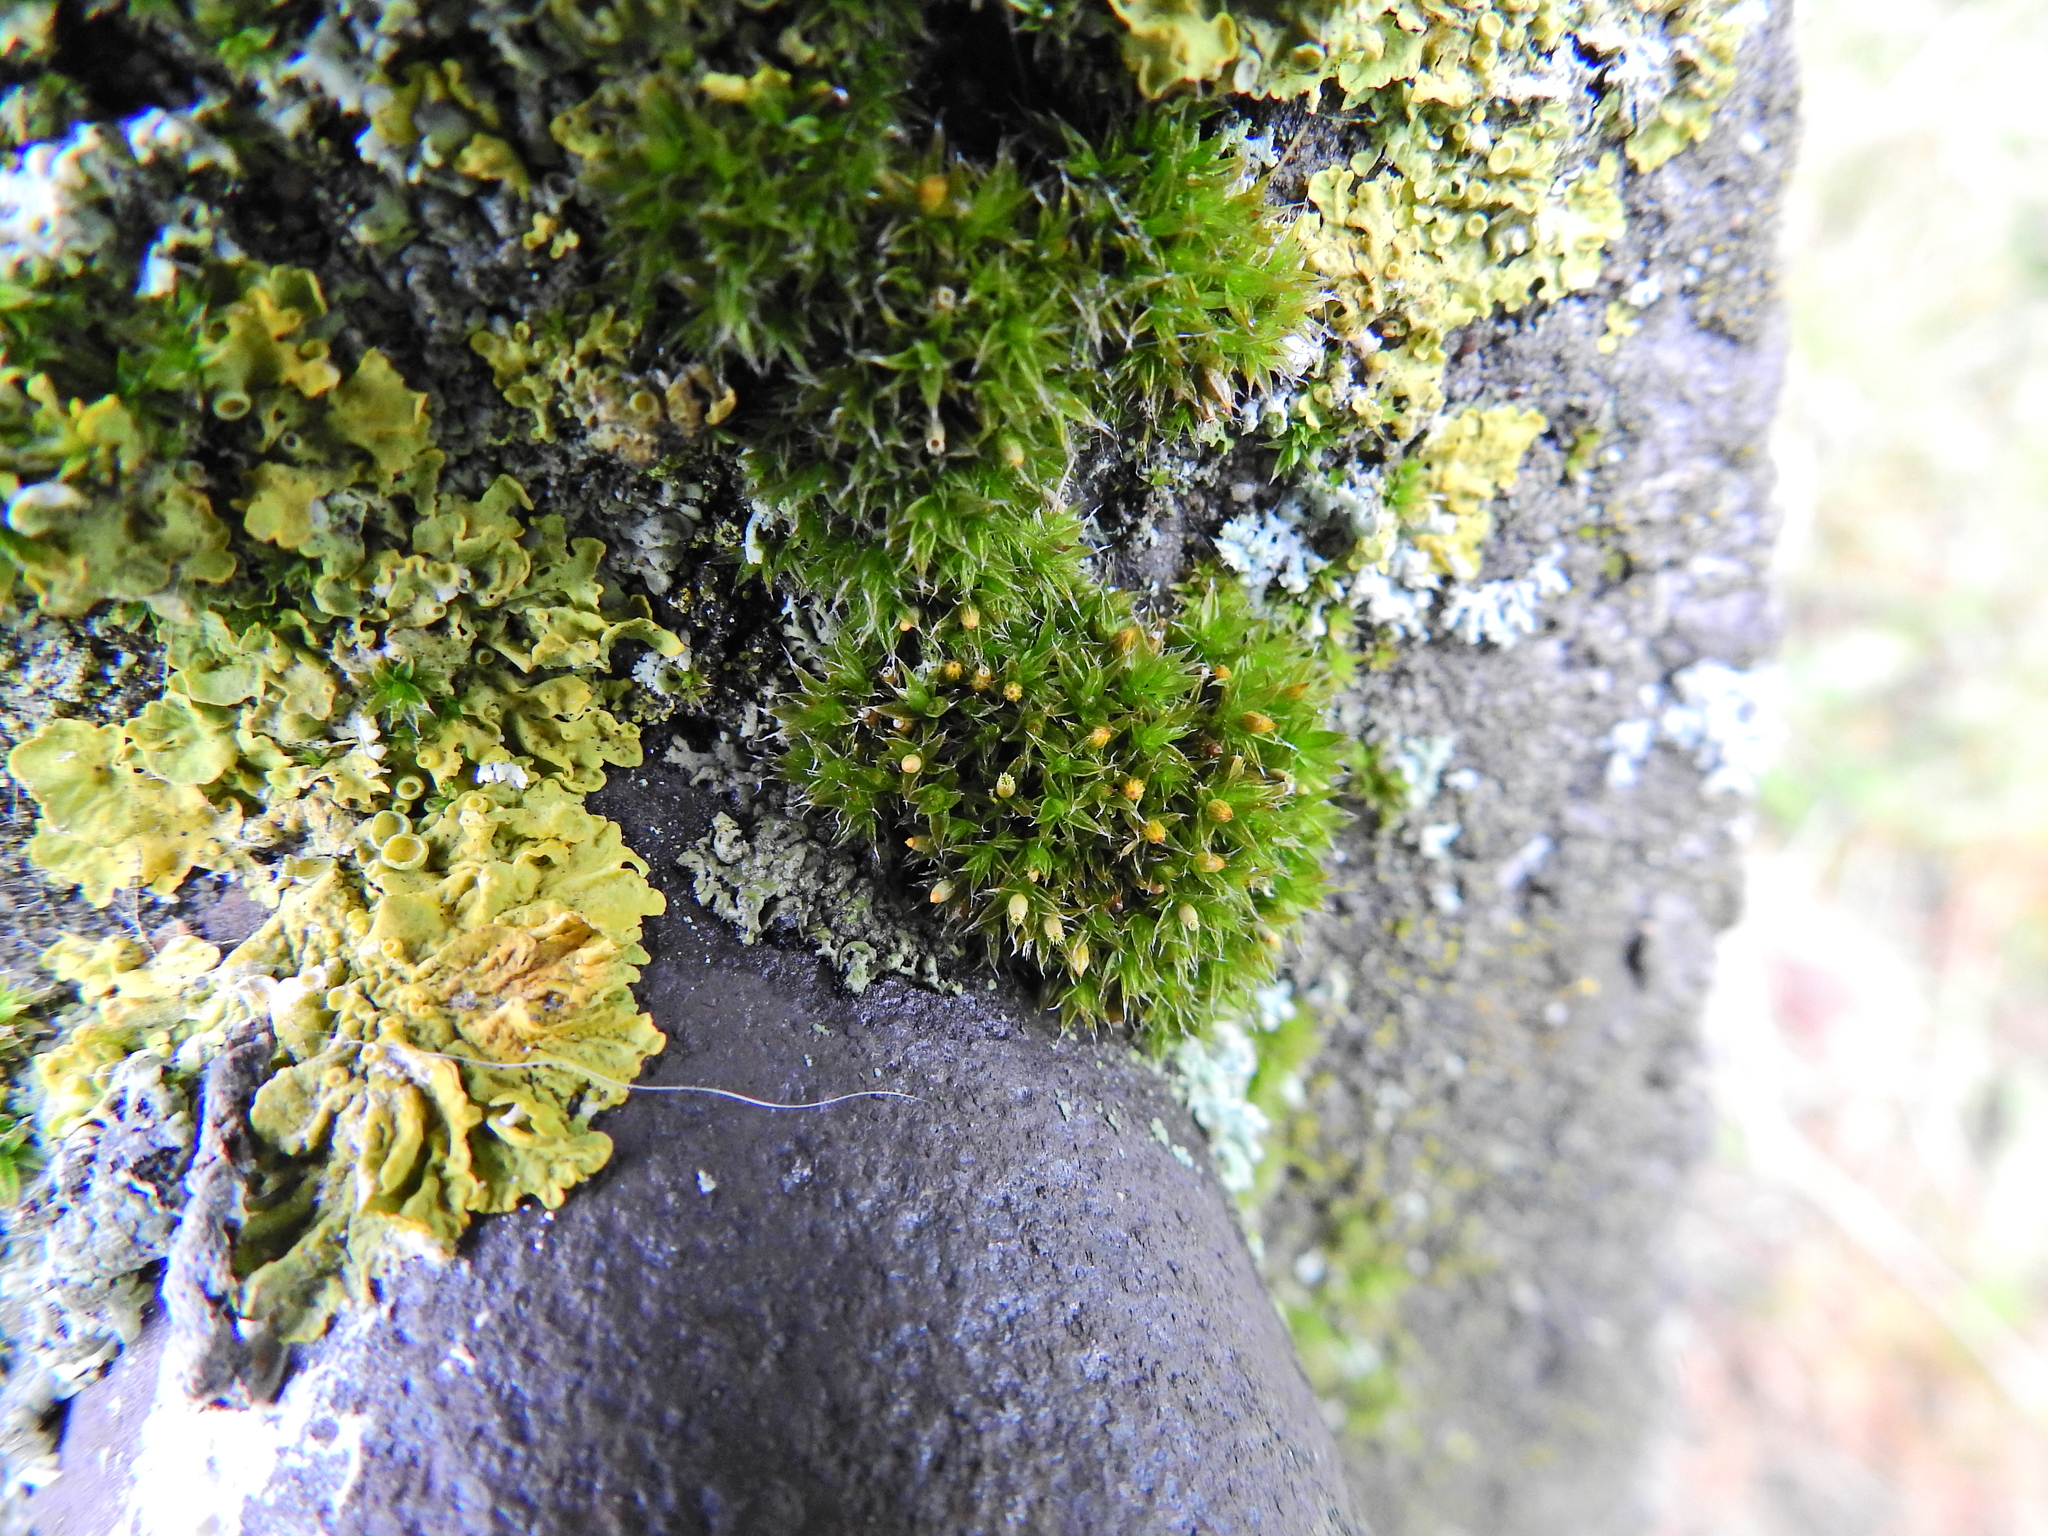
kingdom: Plantae
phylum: Bryophyta
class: Bryopsida
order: Orthotrichales
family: Orthotrichaceae
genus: Orthotrichum
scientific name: Orthotrichum diaphanum
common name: White-tipped bristle-moss
